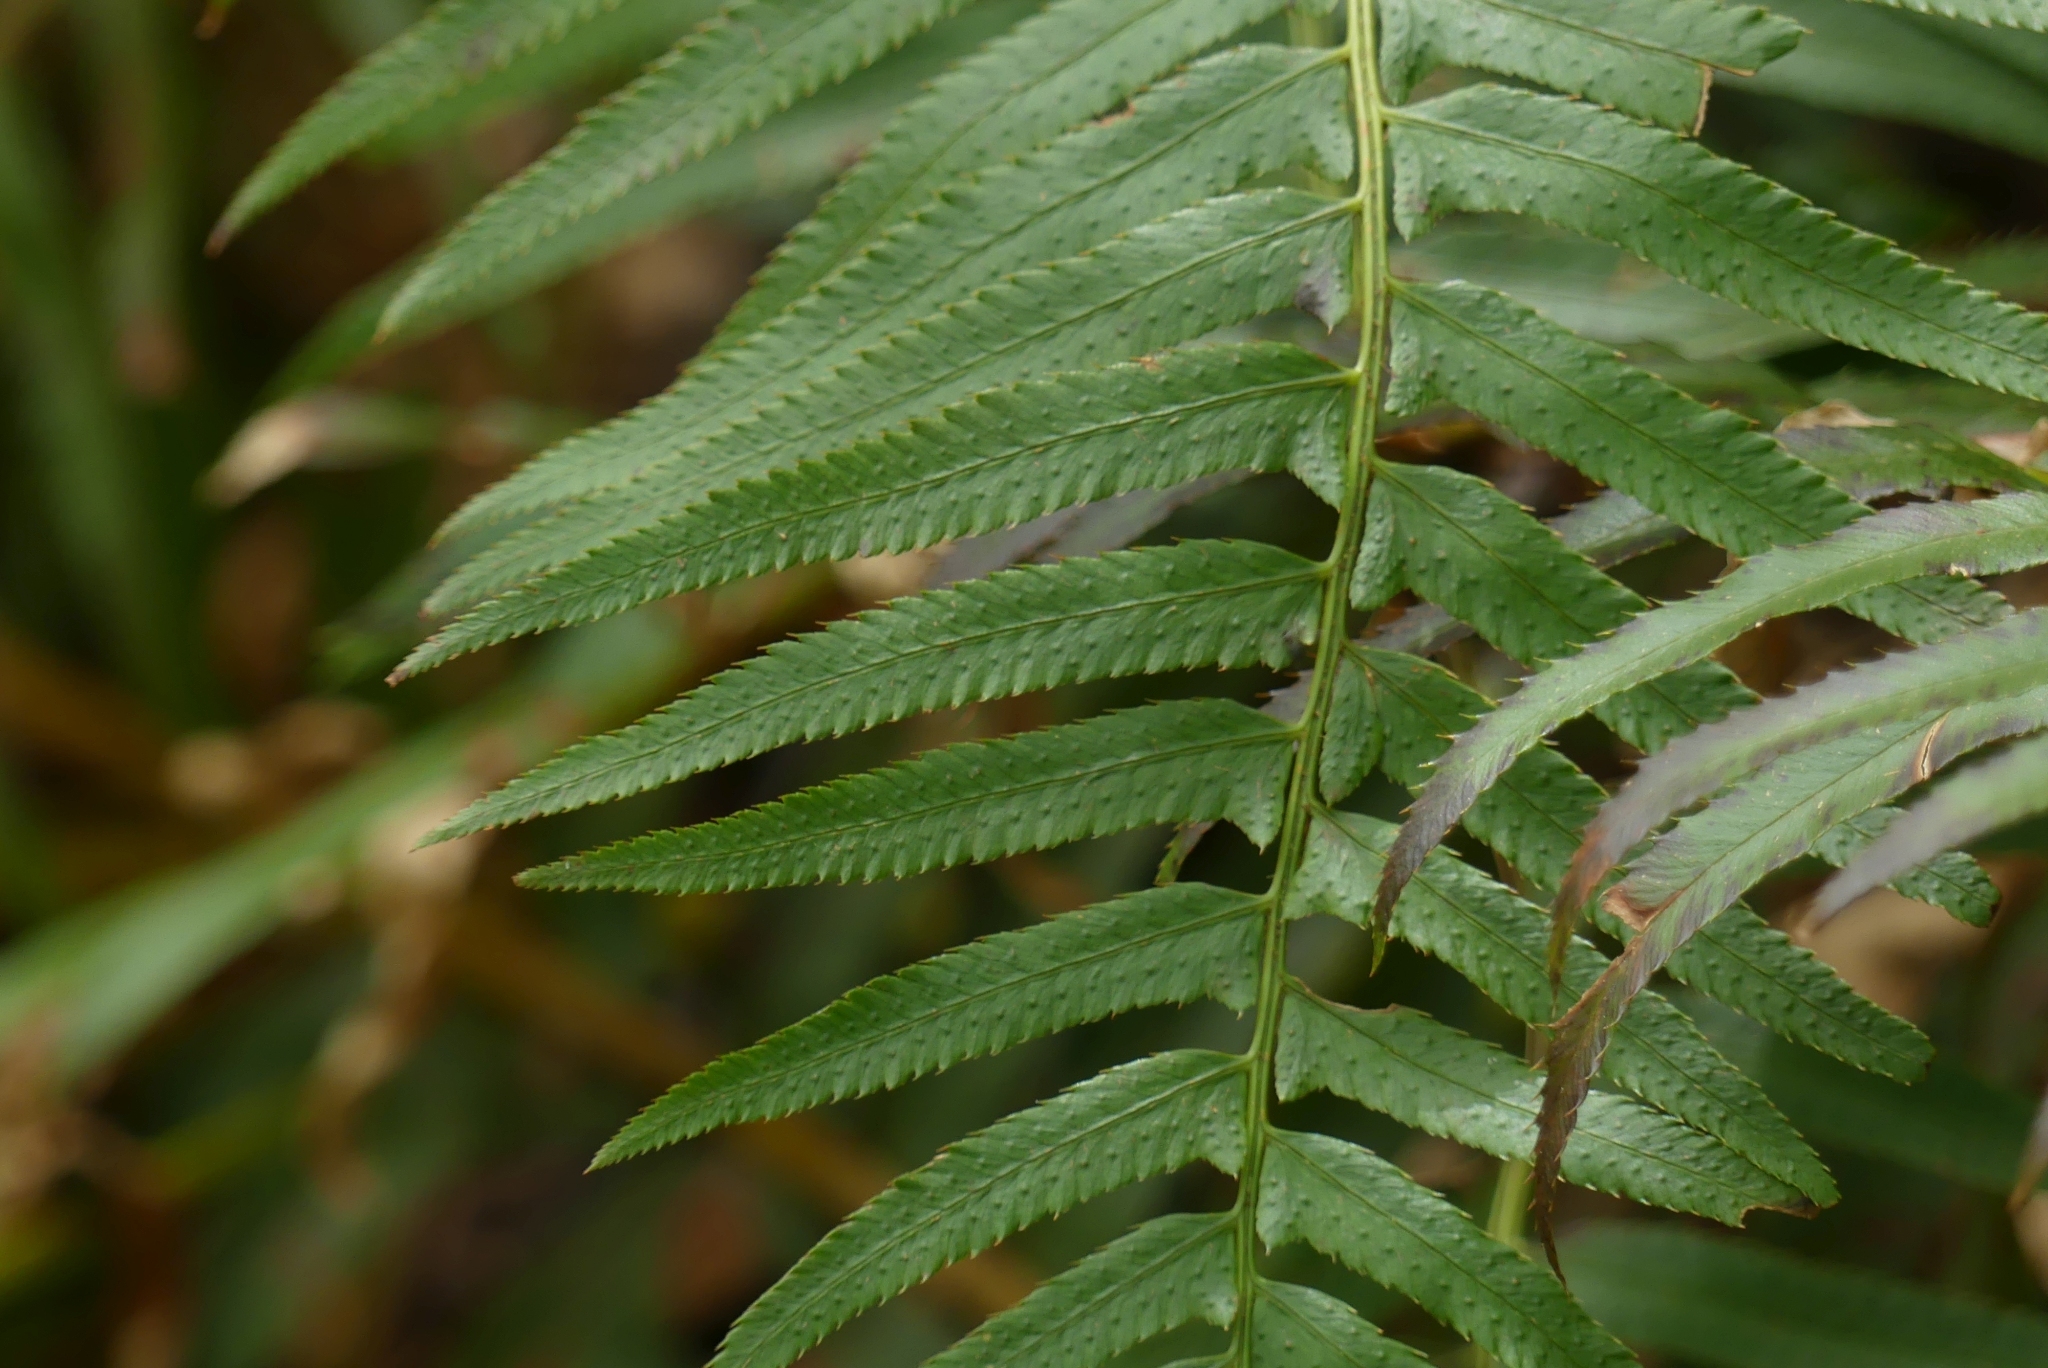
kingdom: Plantae
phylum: Tracheophyta
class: Polypodiopsida
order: Polypodiales
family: Dryopteridaceae
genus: Polystichum
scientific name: Polystichum munitum
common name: Western sword-fern
